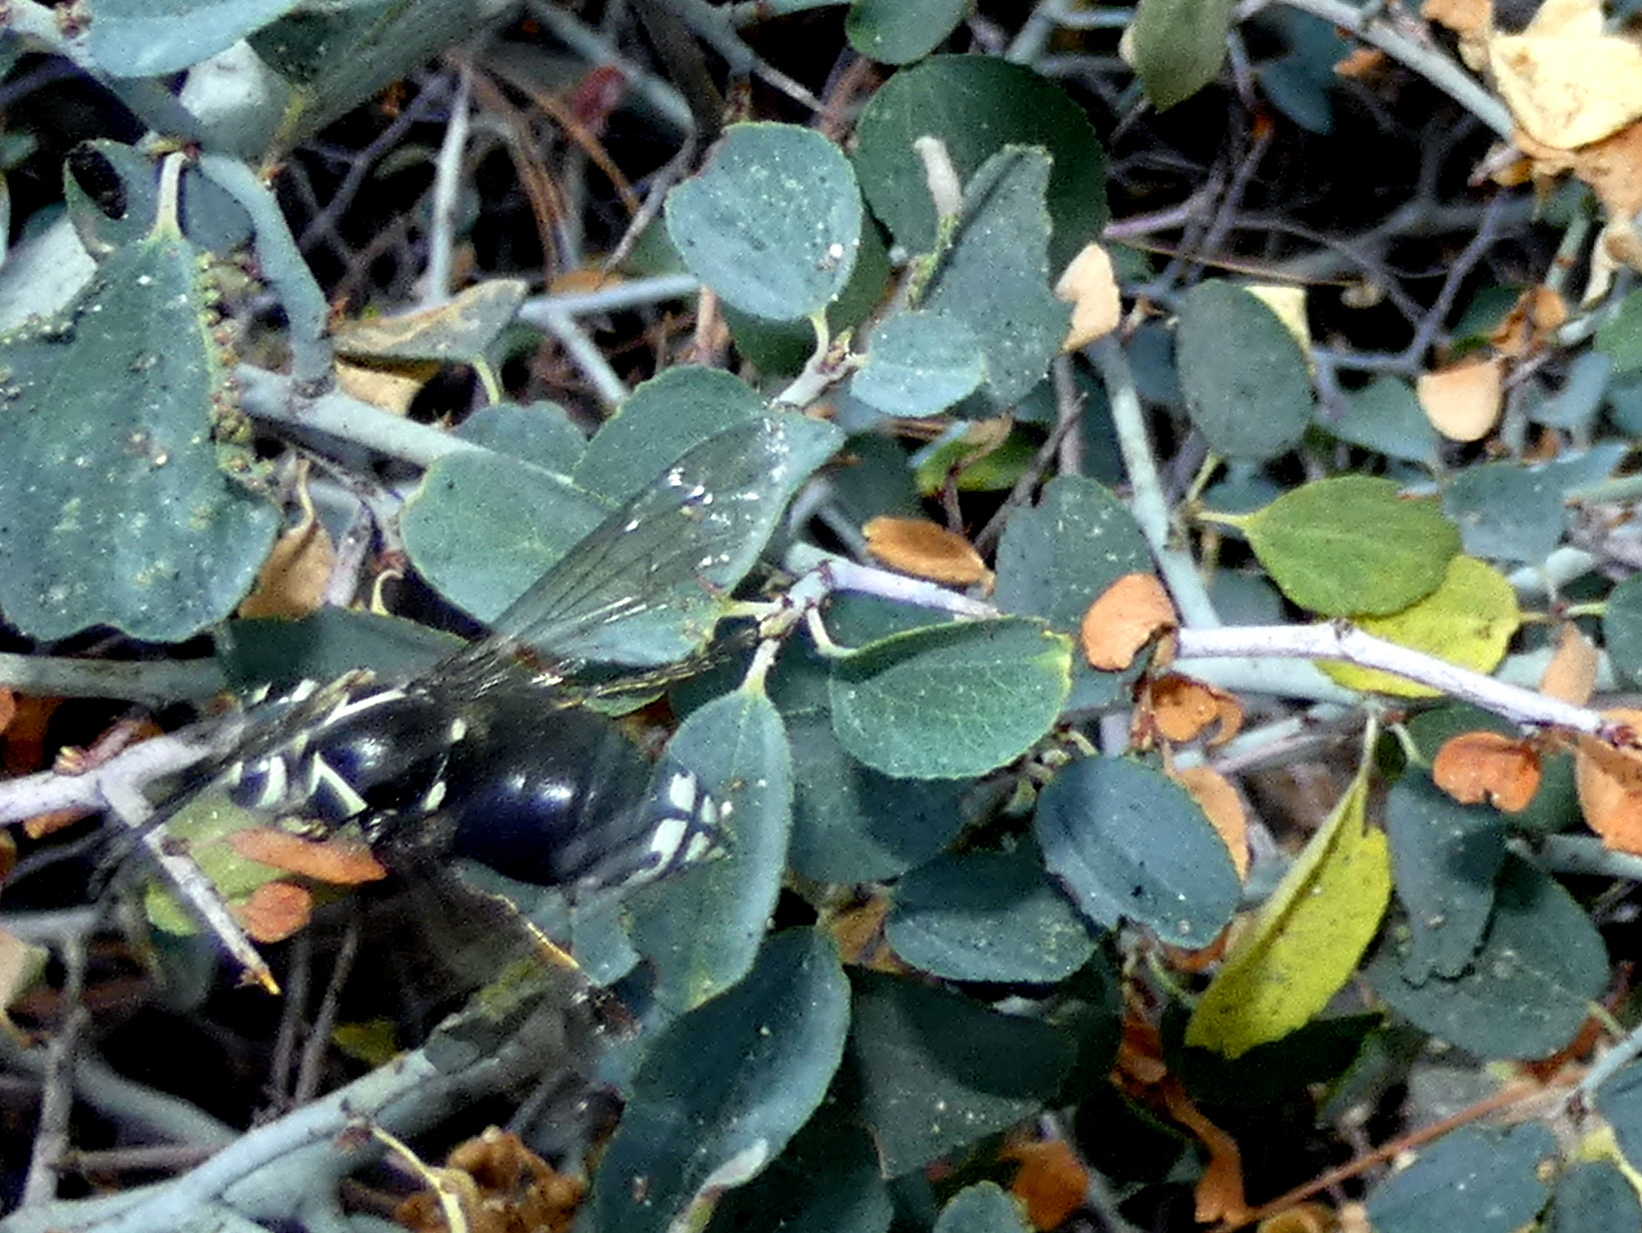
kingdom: Animalia
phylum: Arthropoda
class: Insecta
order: Hymenoptera
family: Vespidae
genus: Dolichovespula
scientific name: Dolichovespula maculata
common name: Bald-faced hornet
